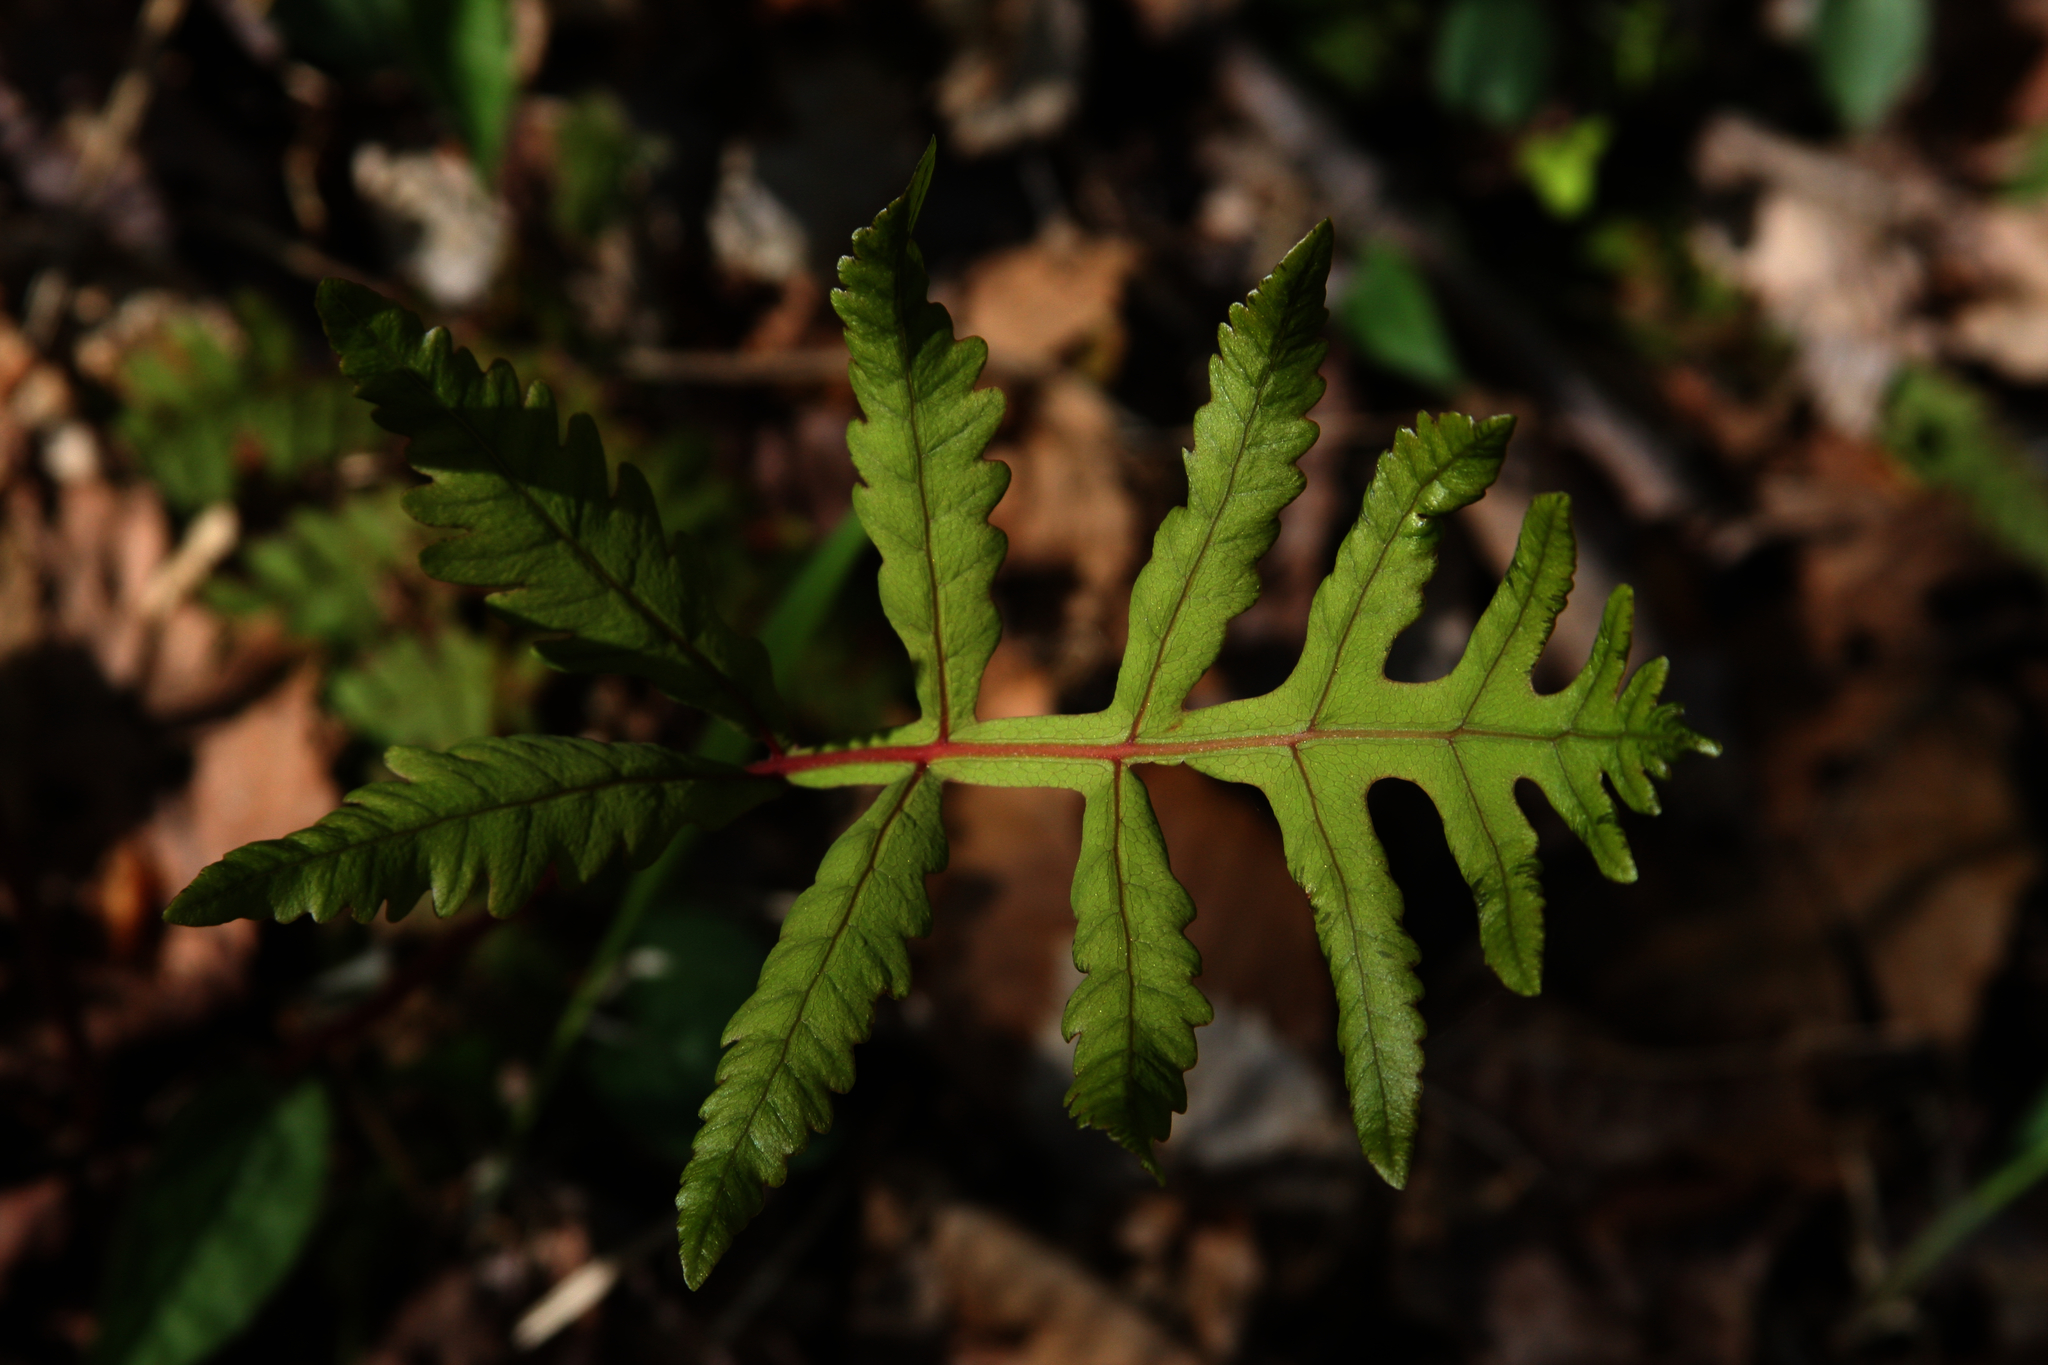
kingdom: Plantae
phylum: Tracheophyta
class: Polypodiopsida
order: Polypodiales
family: Onocleaceae
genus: Onoclea
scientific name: Onoclea sensibilis
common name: Sensitive fern
